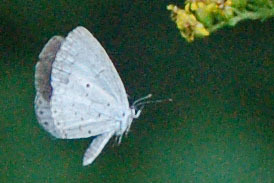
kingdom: Animalia
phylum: Arthropoda
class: Insecta
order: Lepidoptera
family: Lycaenidae
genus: Cyaniris
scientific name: Cyaniris neglecta
